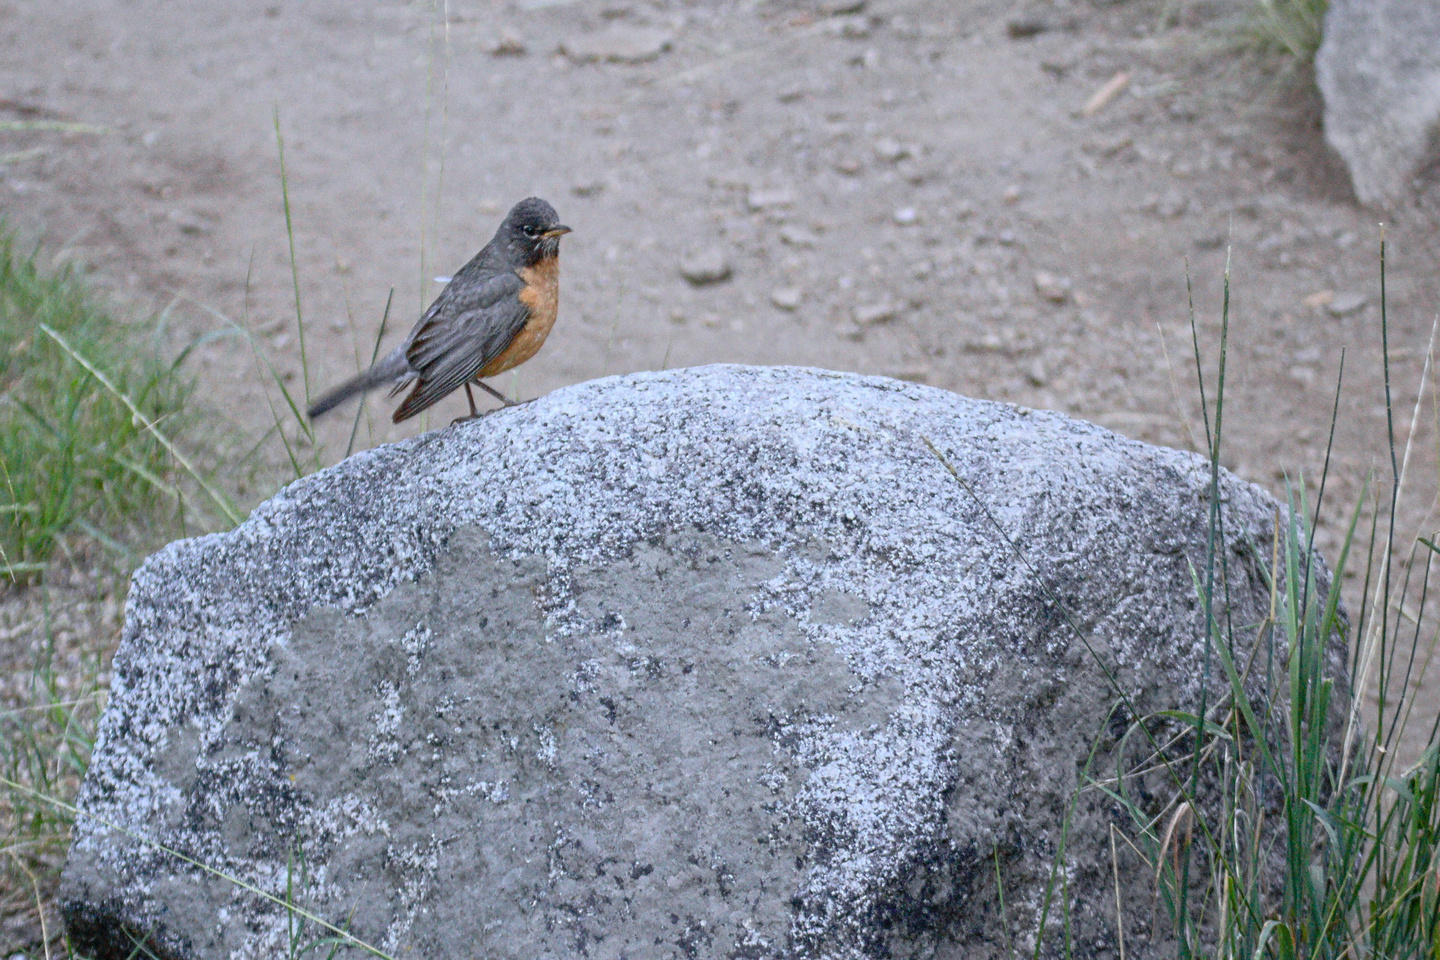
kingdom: Animalia
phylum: Chordata
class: Aves
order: Passeriformes
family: Turdidae
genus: Turdus
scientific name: Turdus migratorius
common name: American robin
